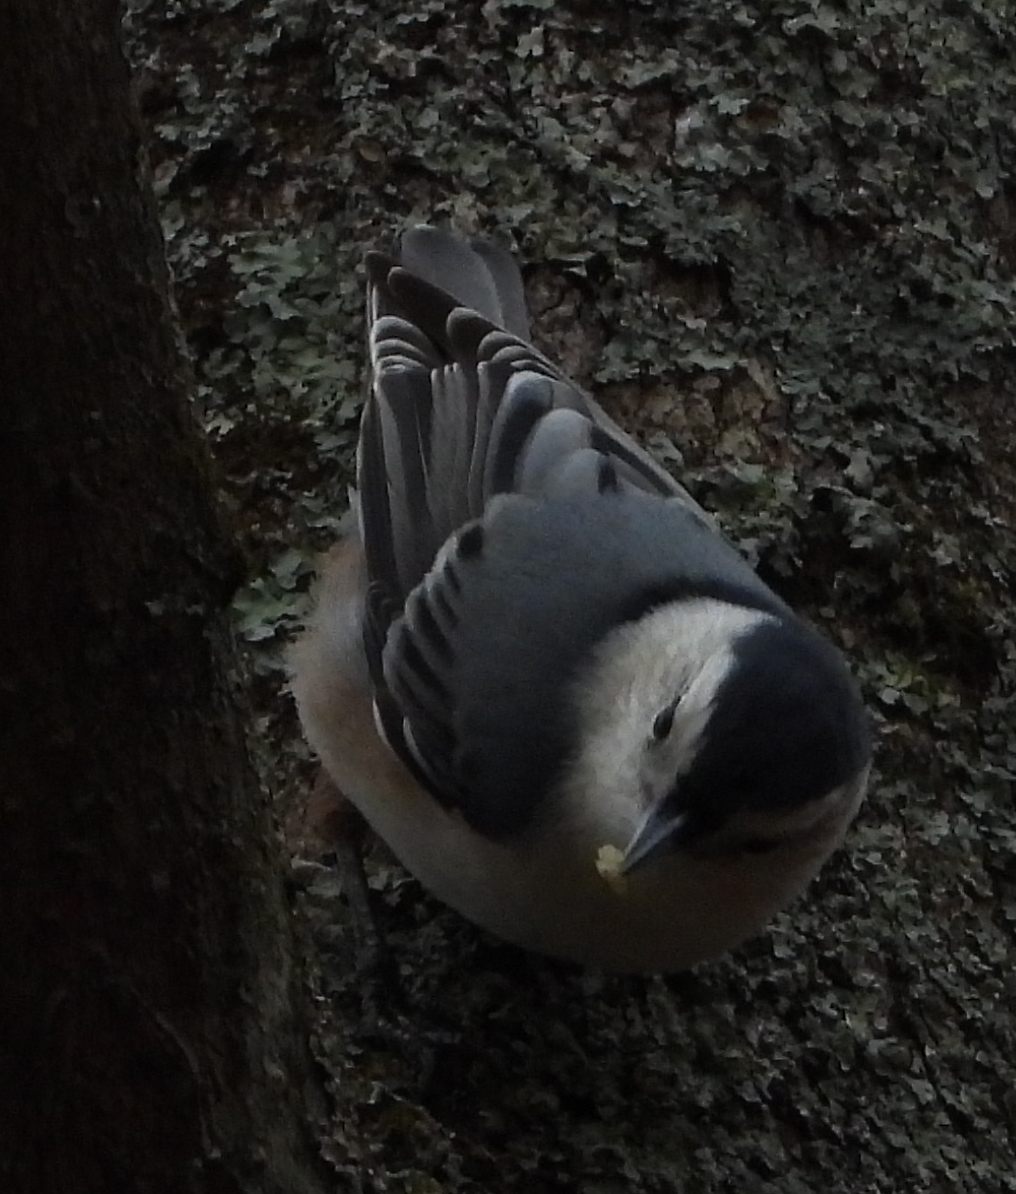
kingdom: Animalia
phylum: Chordata
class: Aves
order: Passeriformes
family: Sittidae
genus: Sitta
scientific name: Sitta carolinensis
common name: White-breasted nuthatch
